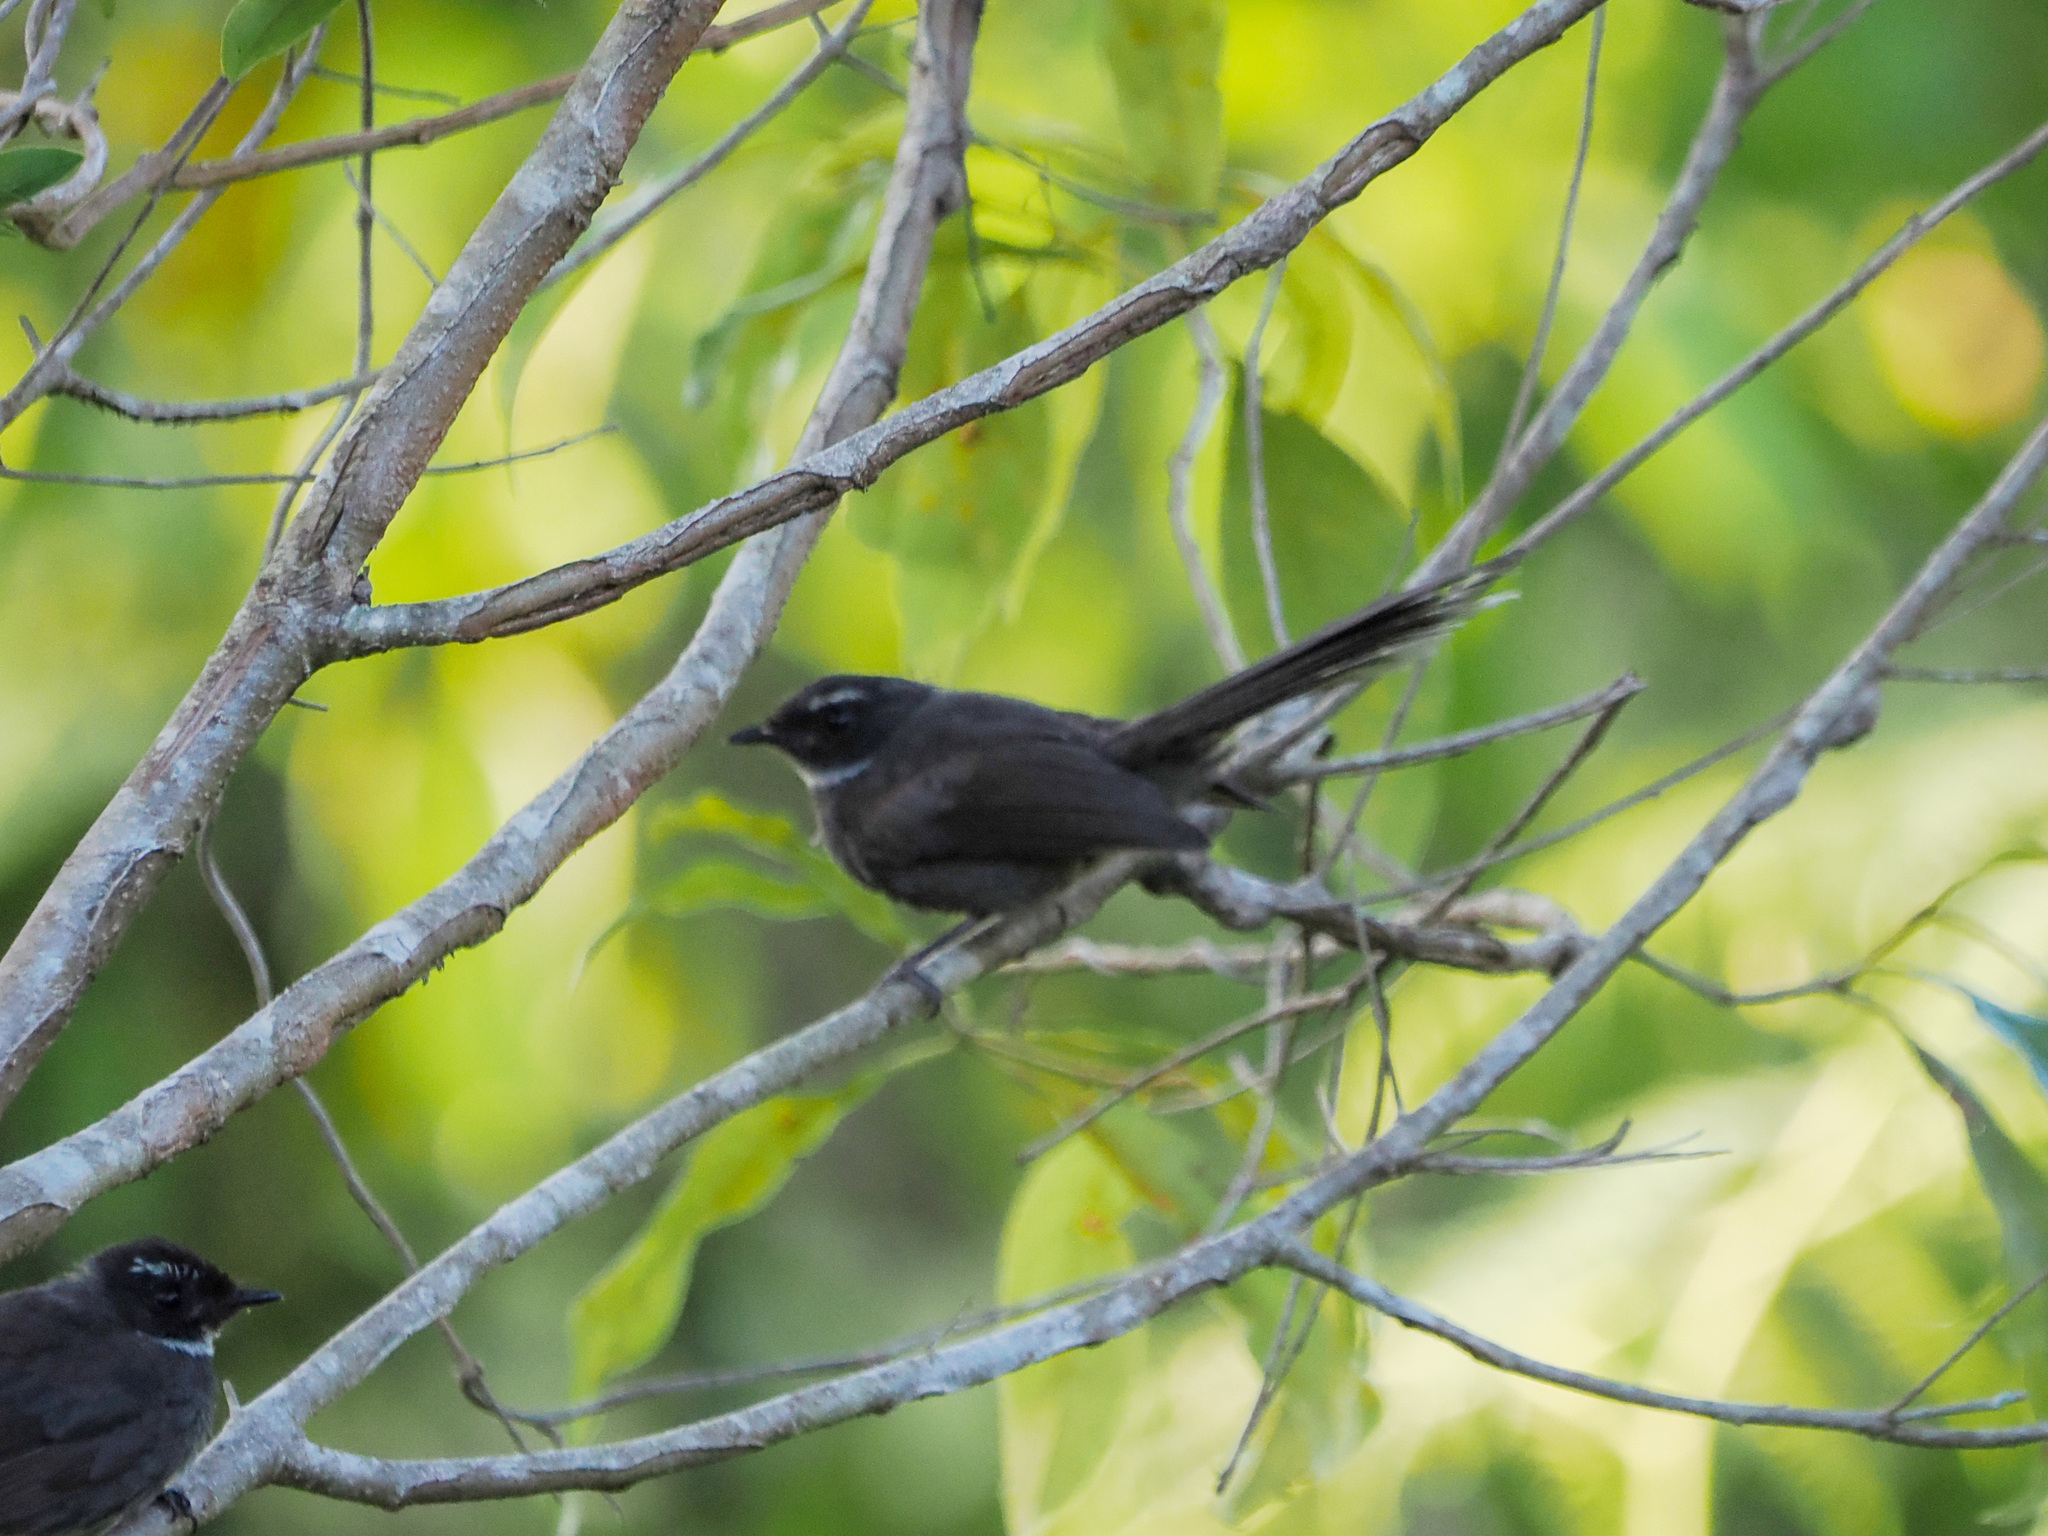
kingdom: Animalia
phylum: Chordata
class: Aves
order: Passeriformes
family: Rhipiduridae
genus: Rhipidura
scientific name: Rhipidura albicollis
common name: White-throated fantail
